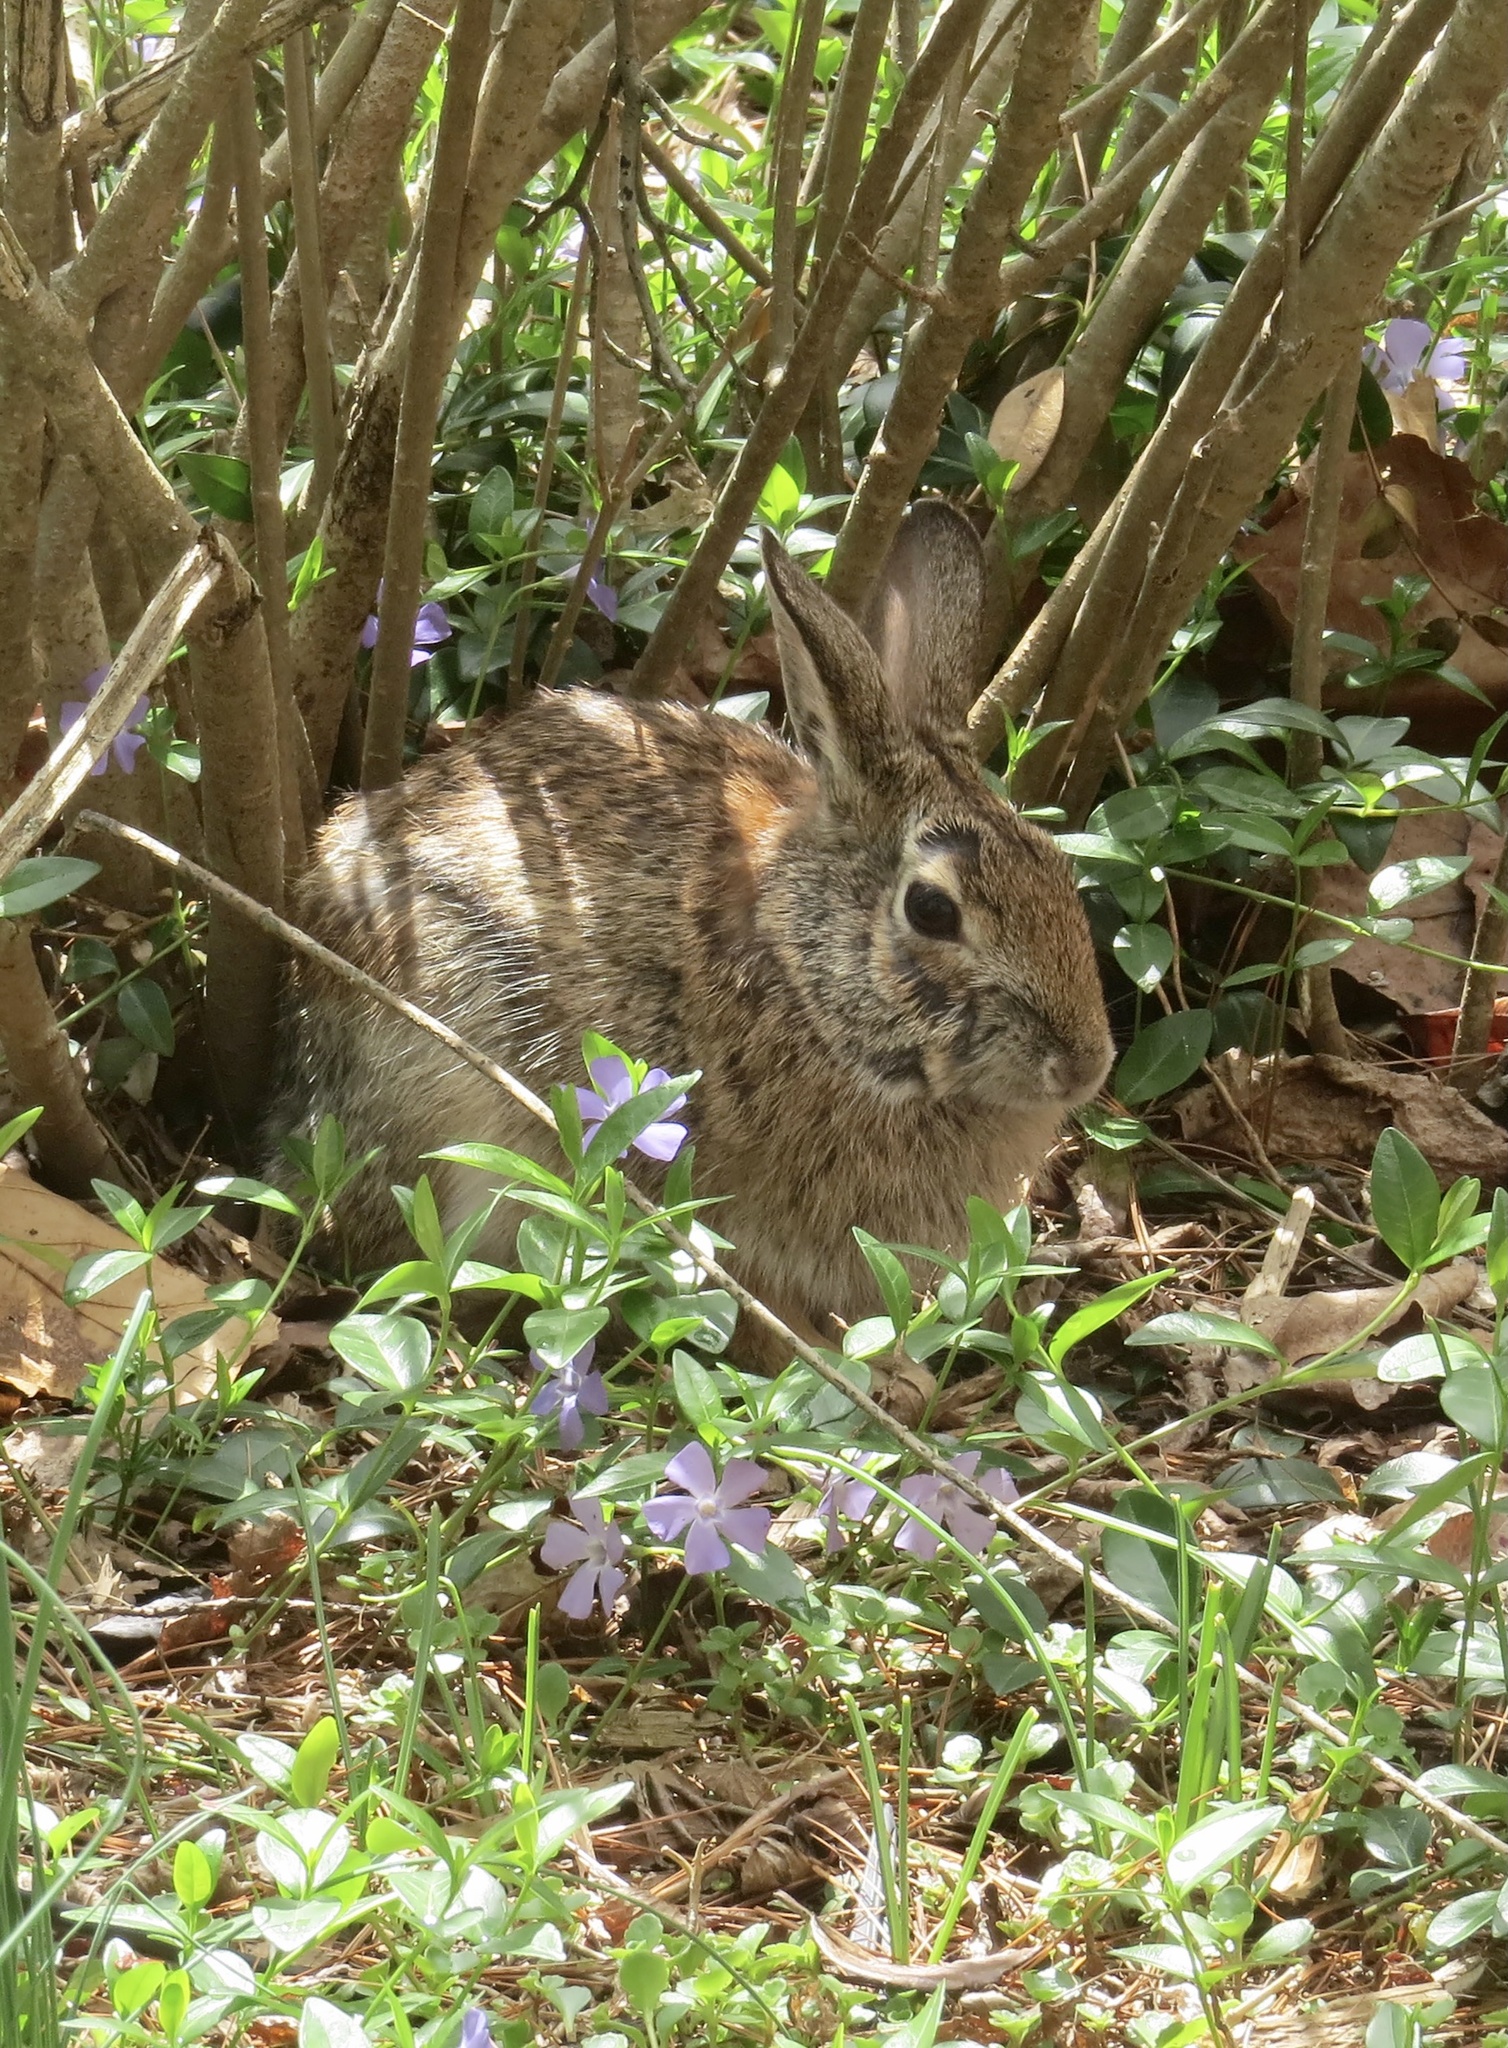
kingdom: Animalia
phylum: Chordata
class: Mammalia
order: Lagomorpha
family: Leporidae
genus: Sylvilagus
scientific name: Sylvilagus floridanus
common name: Eastern cottontail
